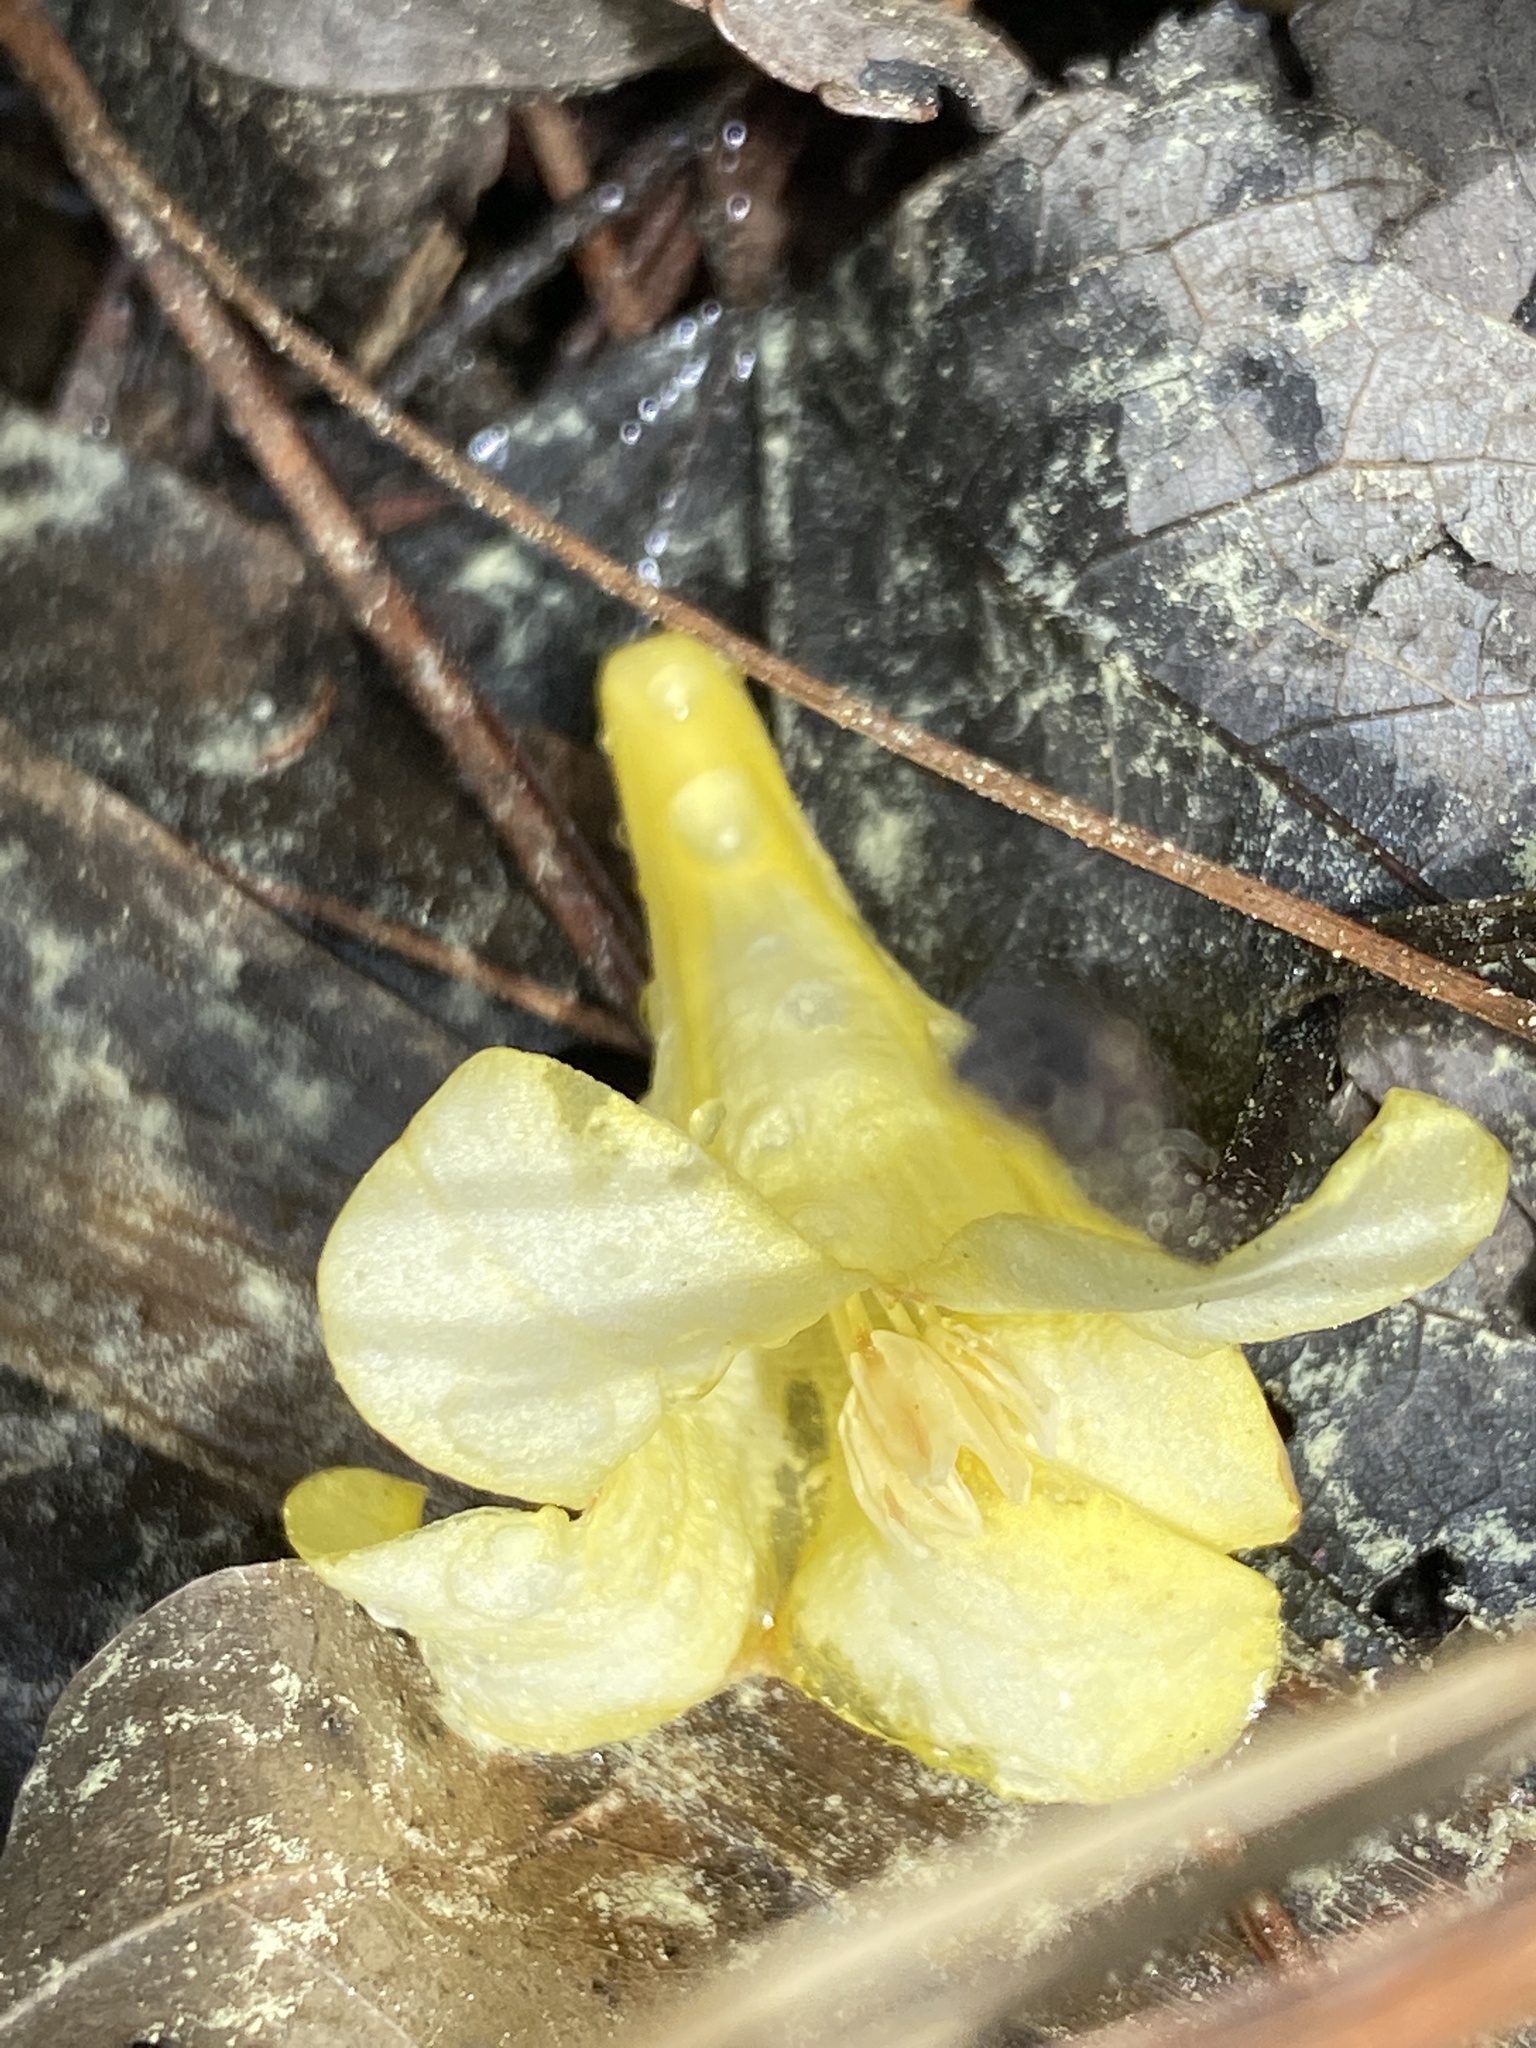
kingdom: Plantae
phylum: Tracheophyta
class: Magnoliopsida
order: Gentianales
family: Gelsemiaceae
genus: Gelsemium
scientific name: Gelsemium sempervirens
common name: Carolina-jasmine
